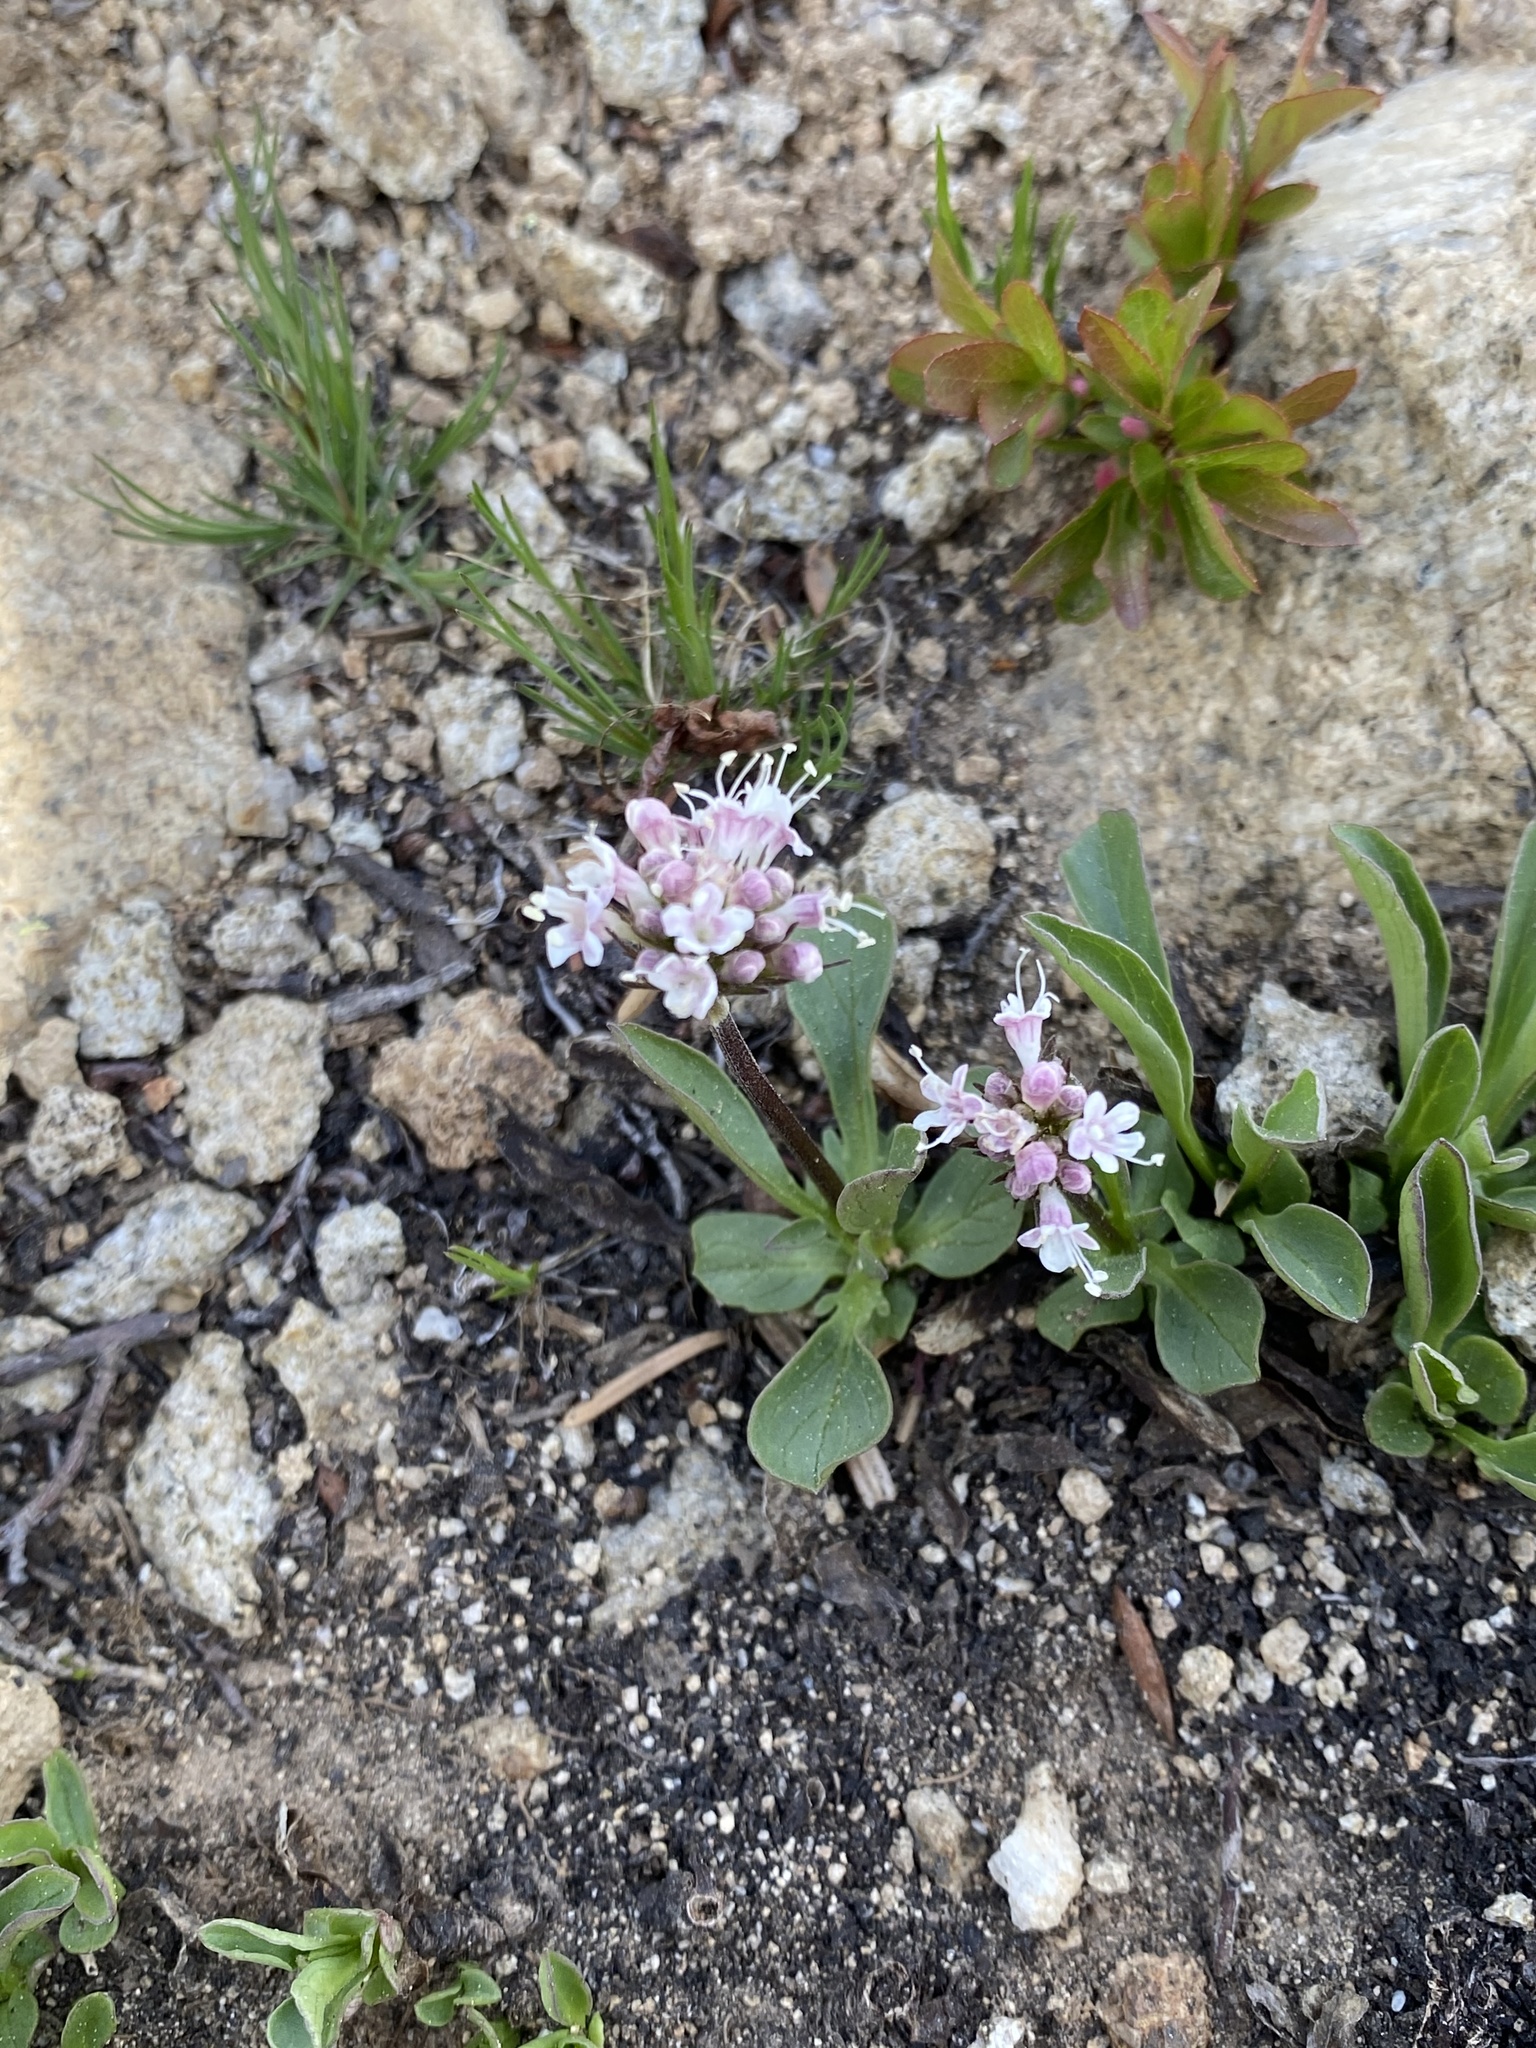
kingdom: Plantae
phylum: Tracheophyta
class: Magnoliopsida
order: Dipsacales
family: Caprifoliaceae
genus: Valeriana
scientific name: Valeriana capitata
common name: Capitate valerian
